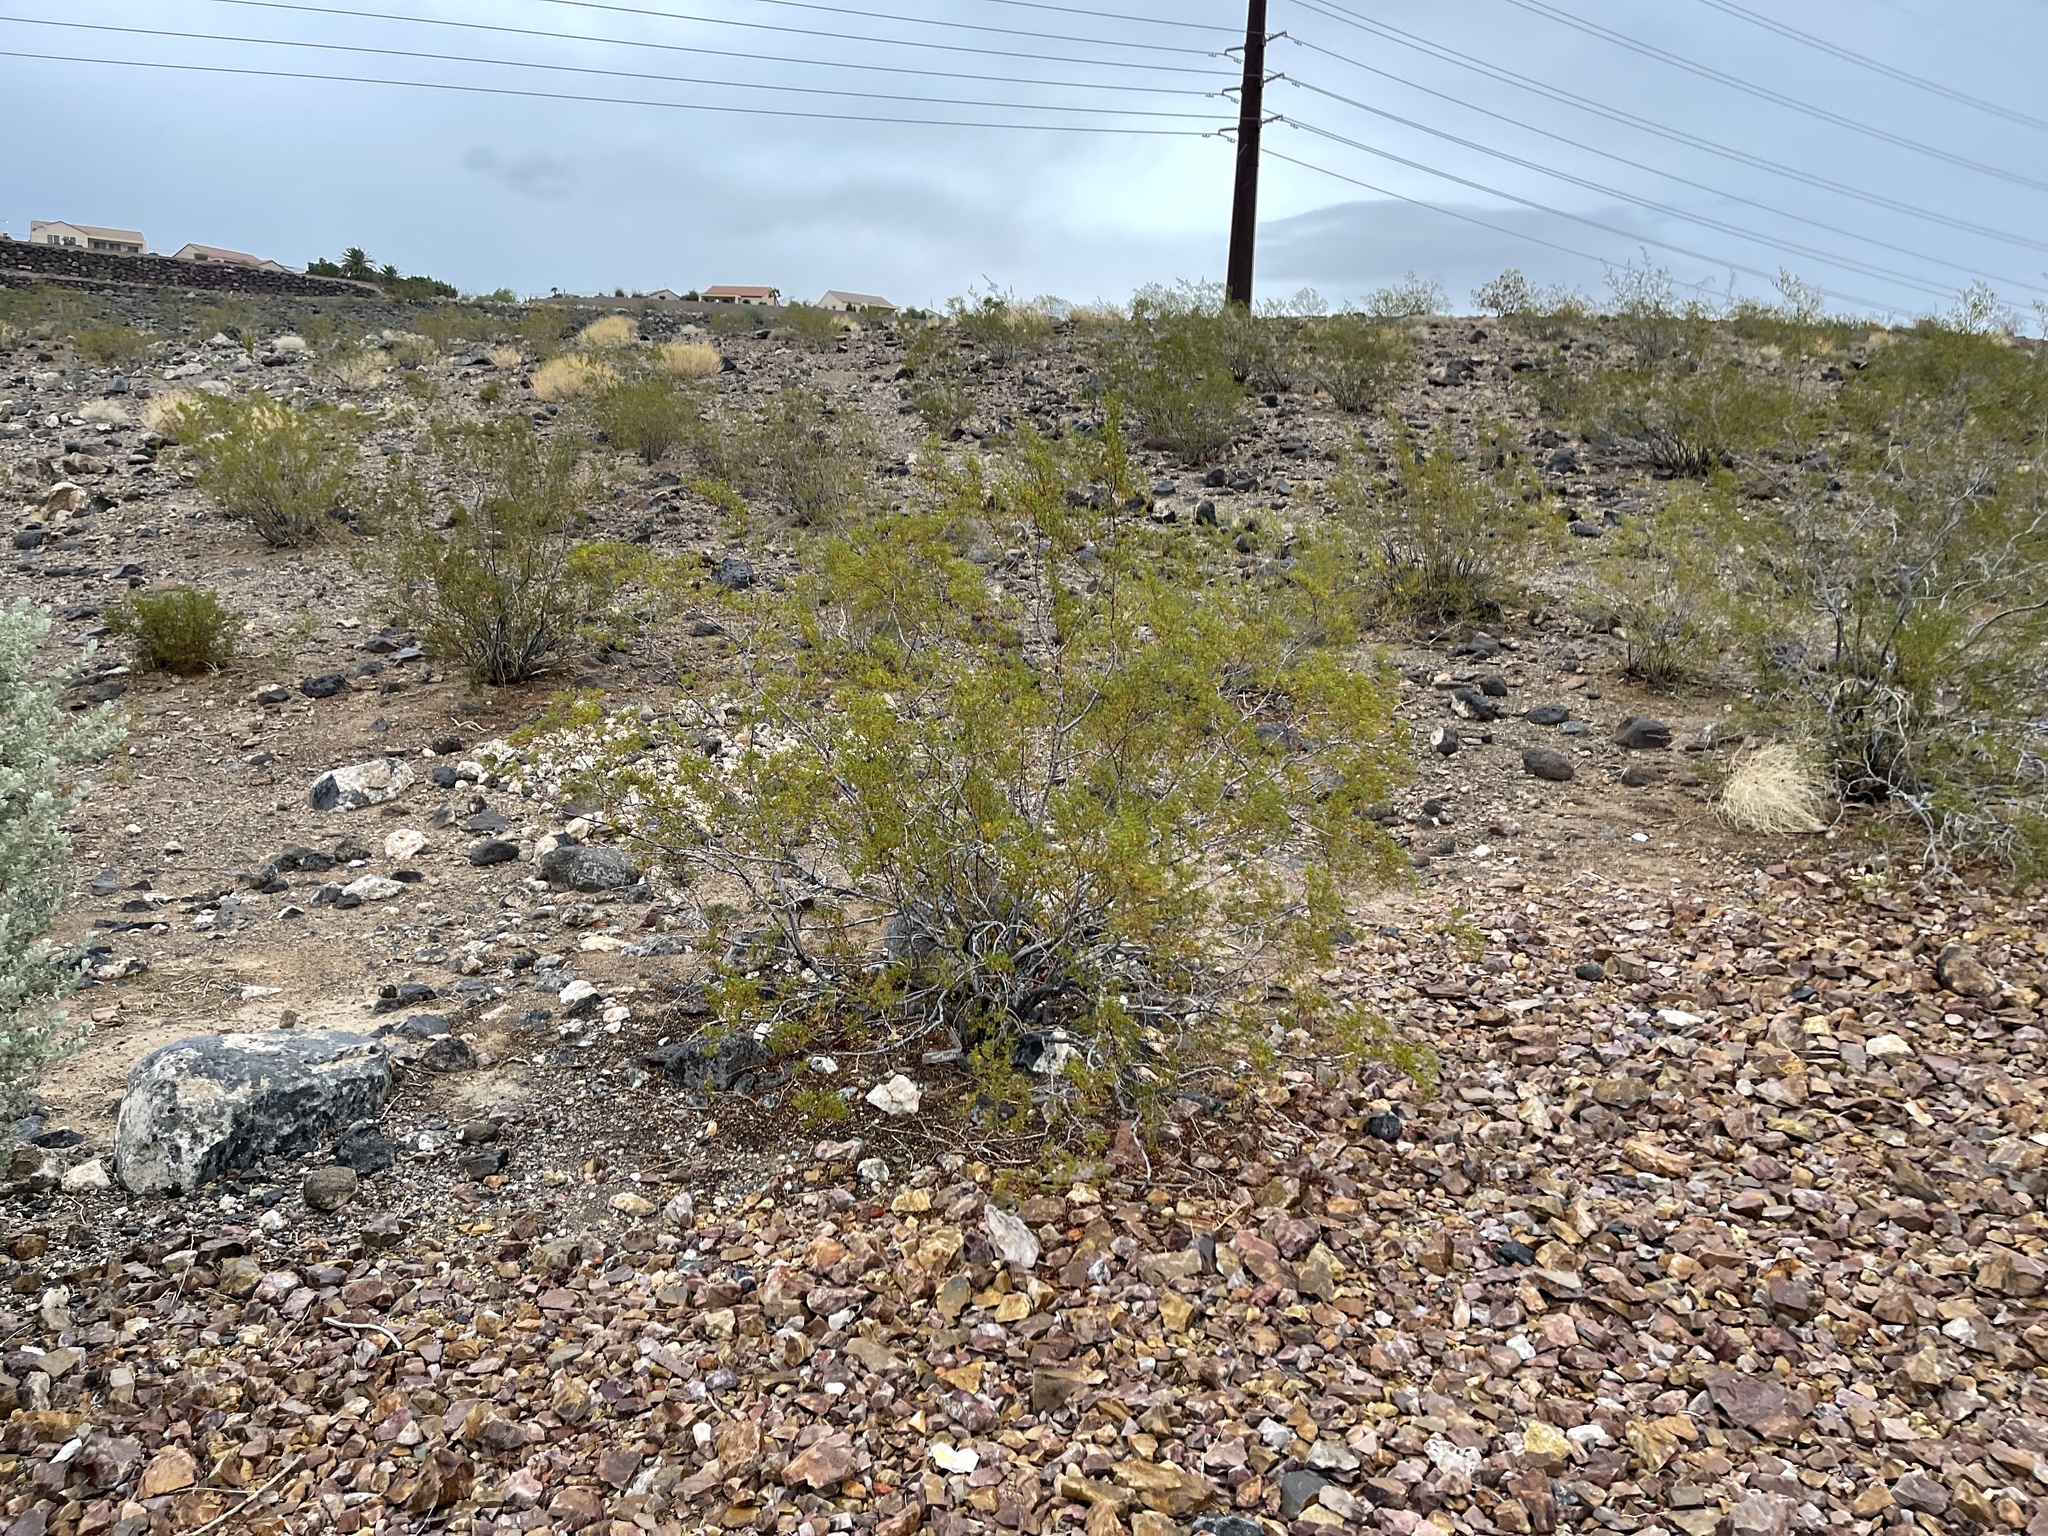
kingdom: Plantae
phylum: Tracheophyta
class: Magnoliopsida
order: Zygophyllales
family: Zygophyllaceae
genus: Larrea
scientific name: Larrea tridentata
